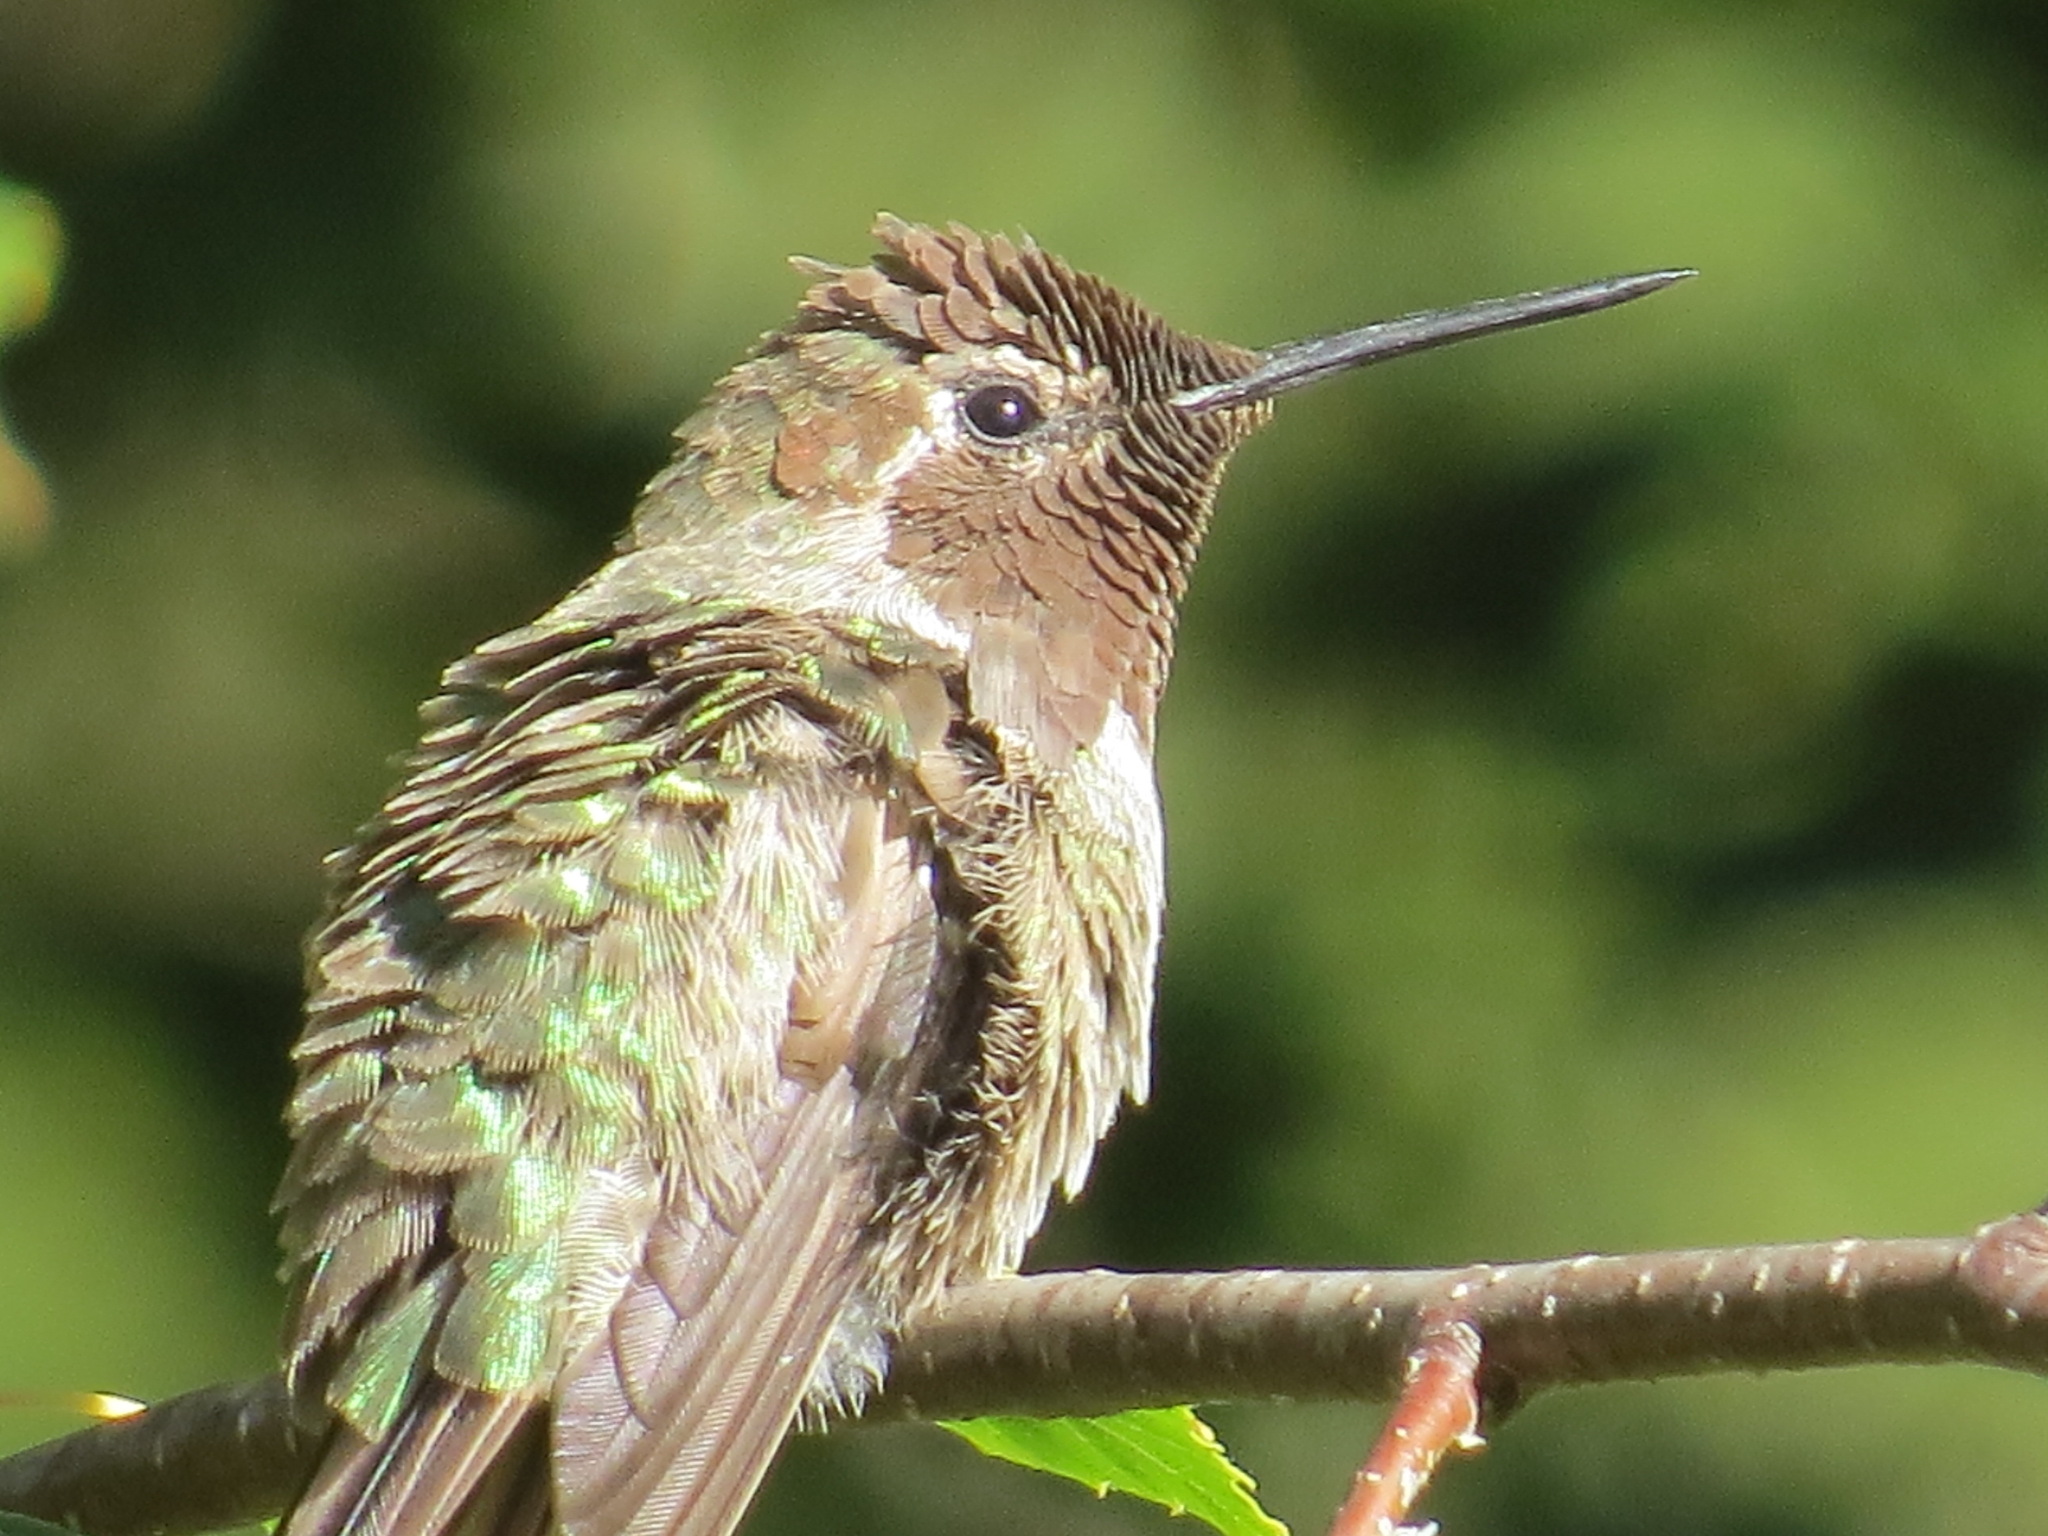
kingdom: Animalia
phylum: Chordata
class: Aves
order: Apodiformes
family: Trochilidae
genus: Calypte
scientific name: Calypte anna
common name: Anna's hummingbird
